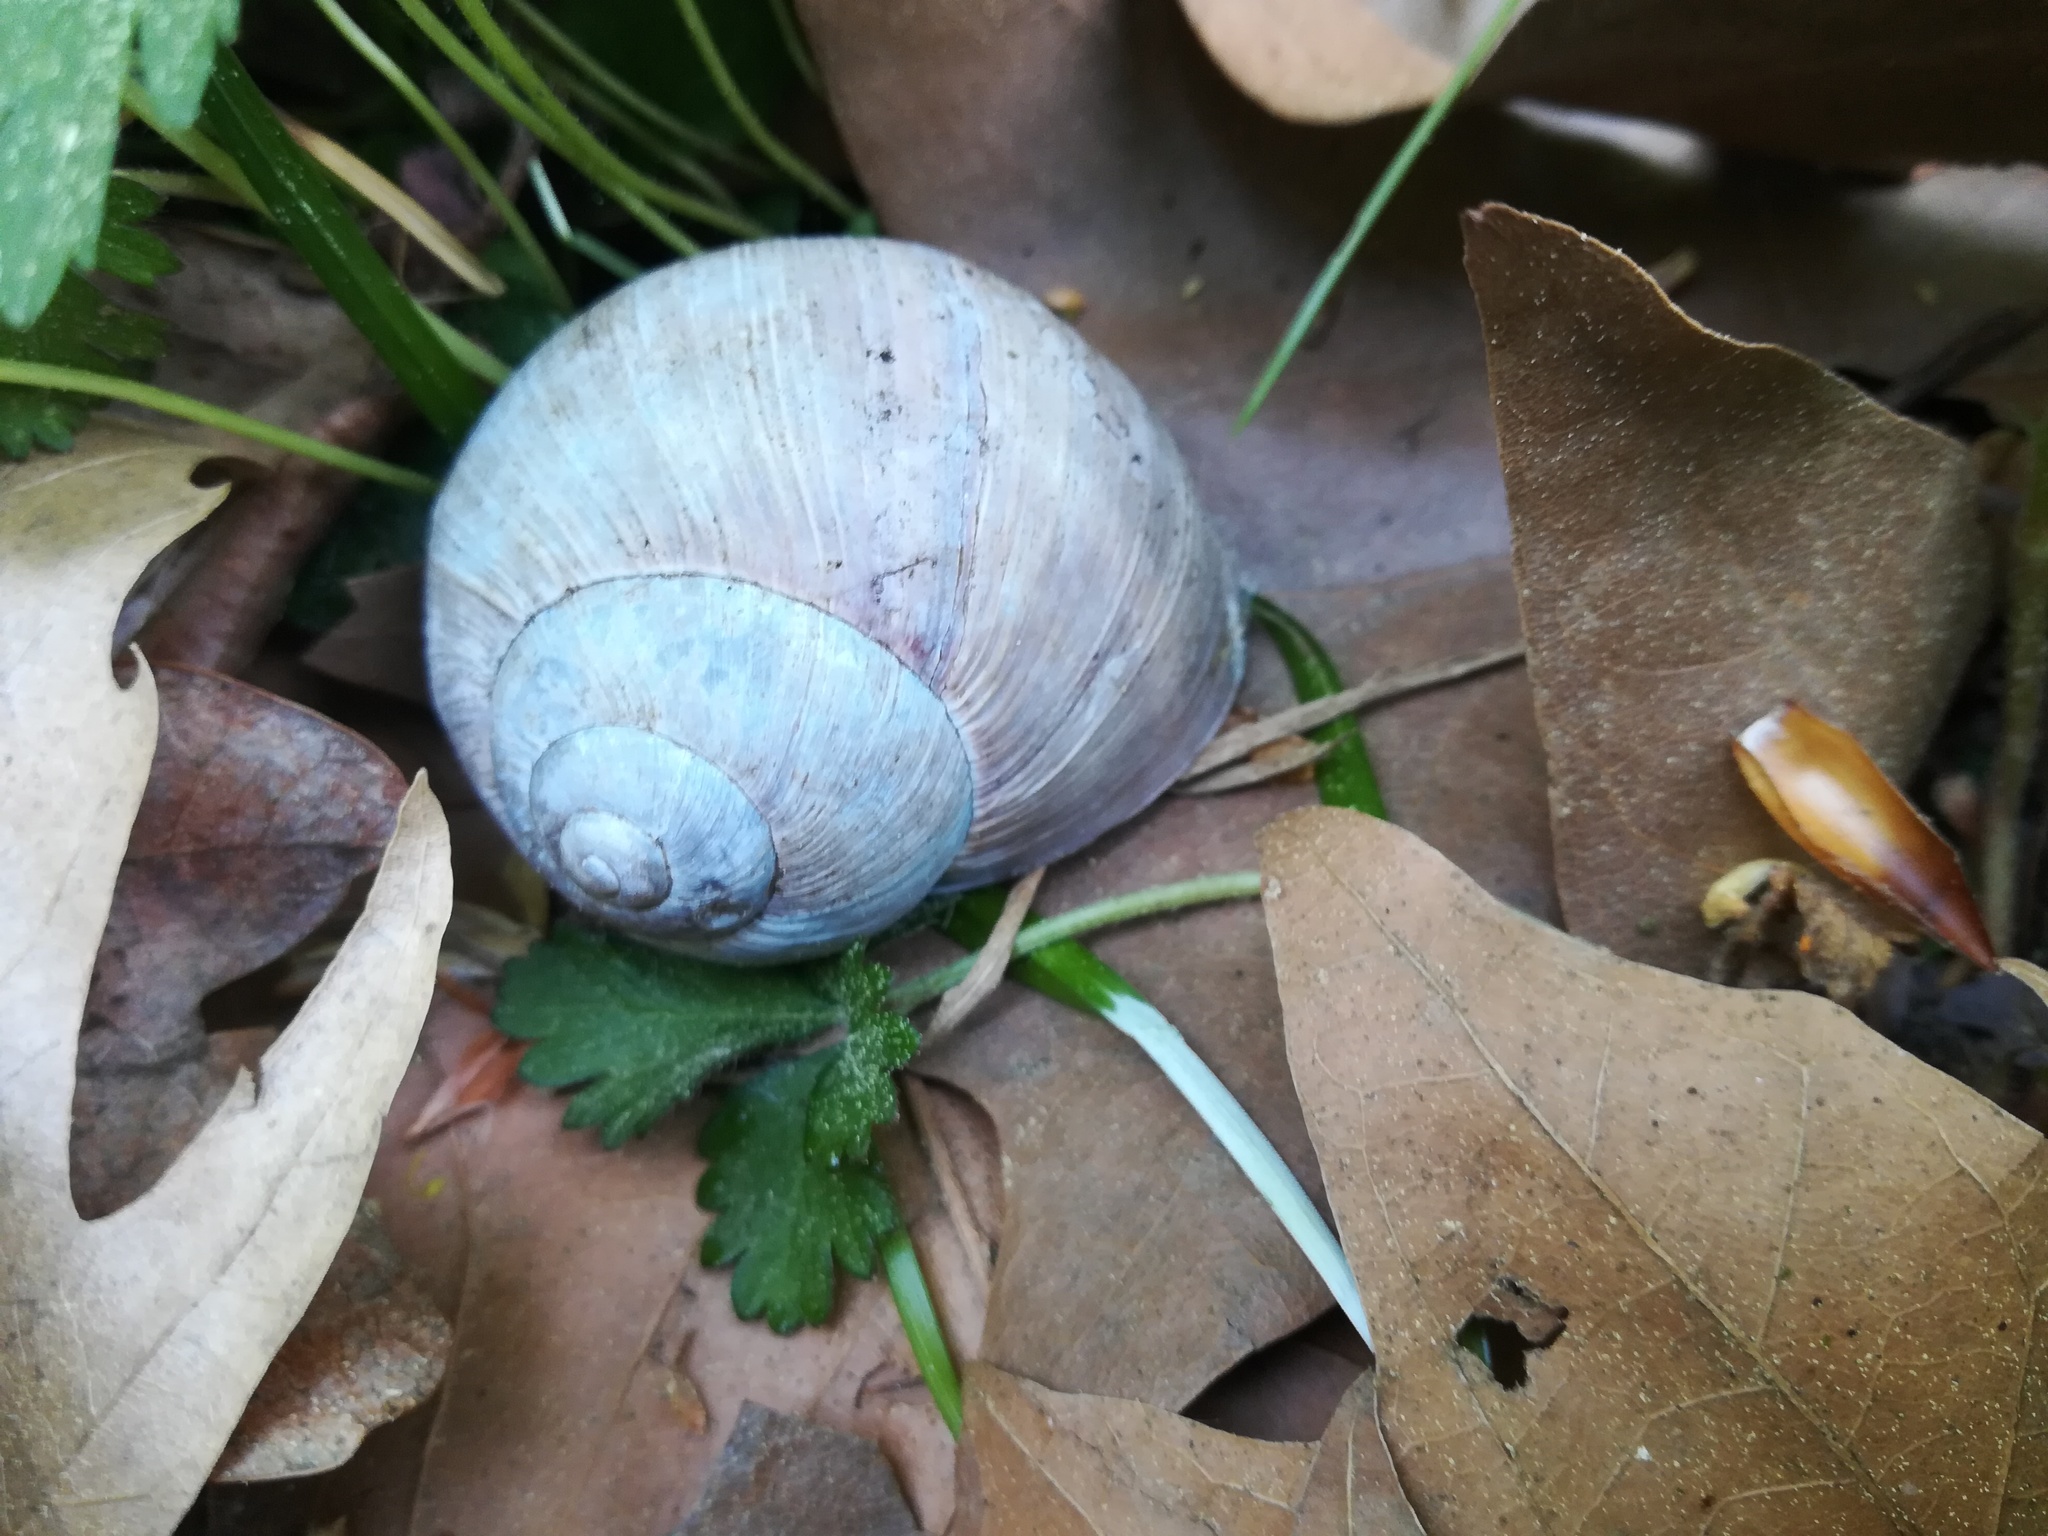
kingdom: Animalia
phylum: Mollusca
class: Gastropoda
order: Stylommatophora
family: Helicidae
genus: Helix
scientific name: Helix pomatia
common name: Roman snail
